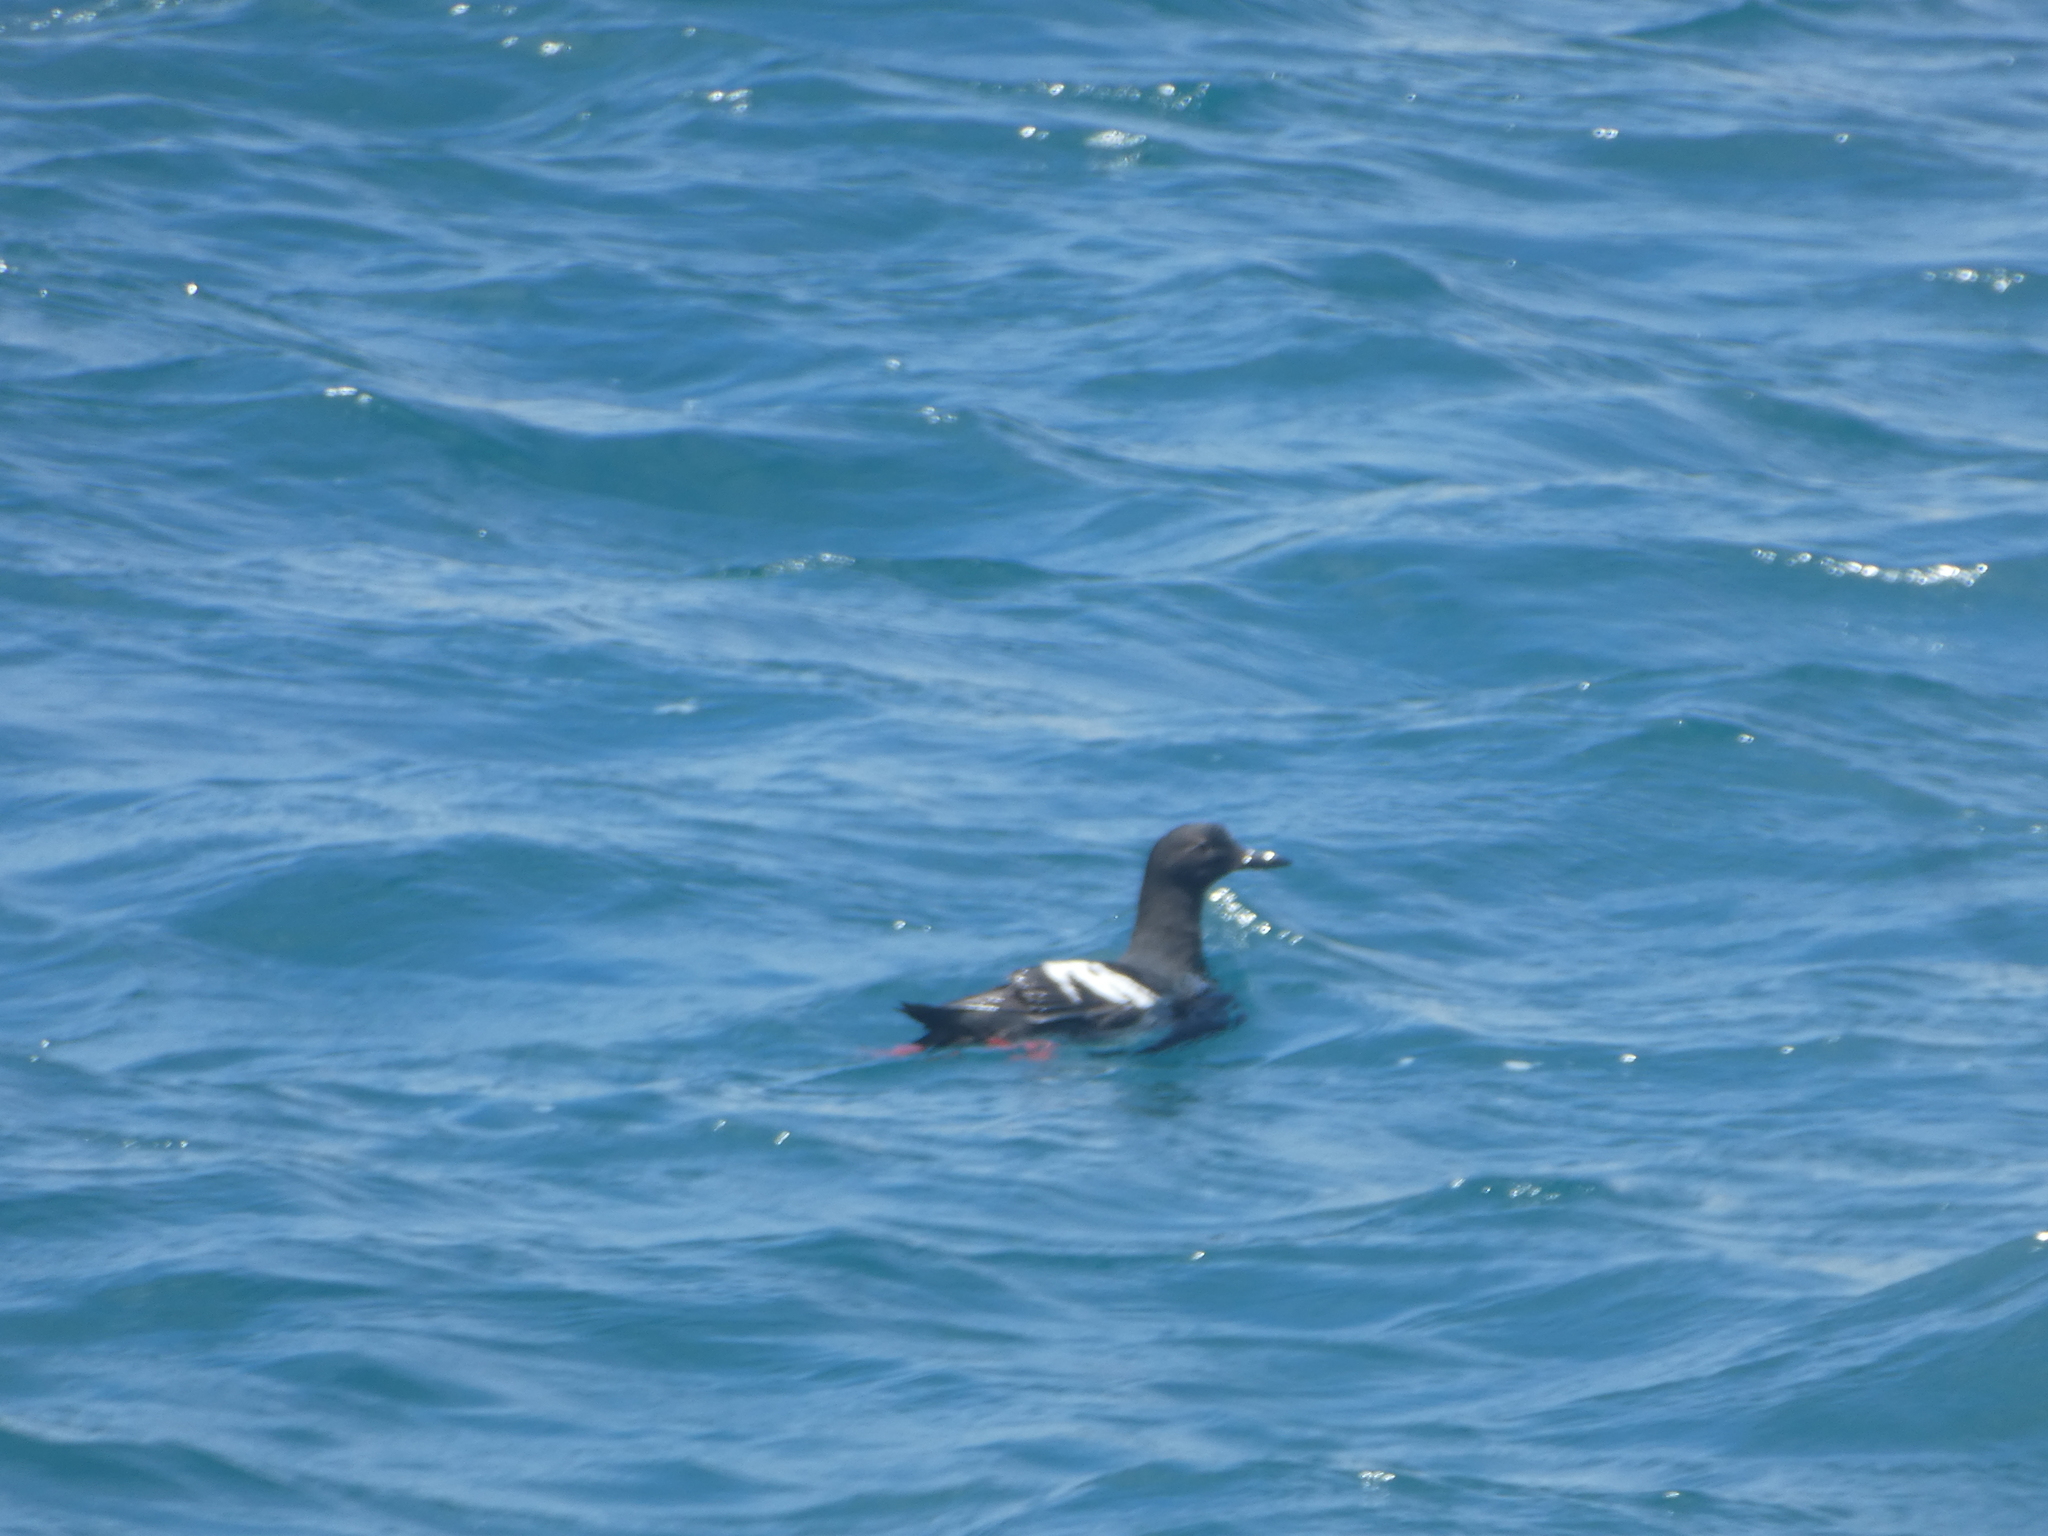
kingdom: Animalia
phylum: Chordata
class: Aves
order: Charadriiformes
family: Alcidae
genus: Cepphus
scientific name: Cepphus columba
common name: Pigeon guillemot
